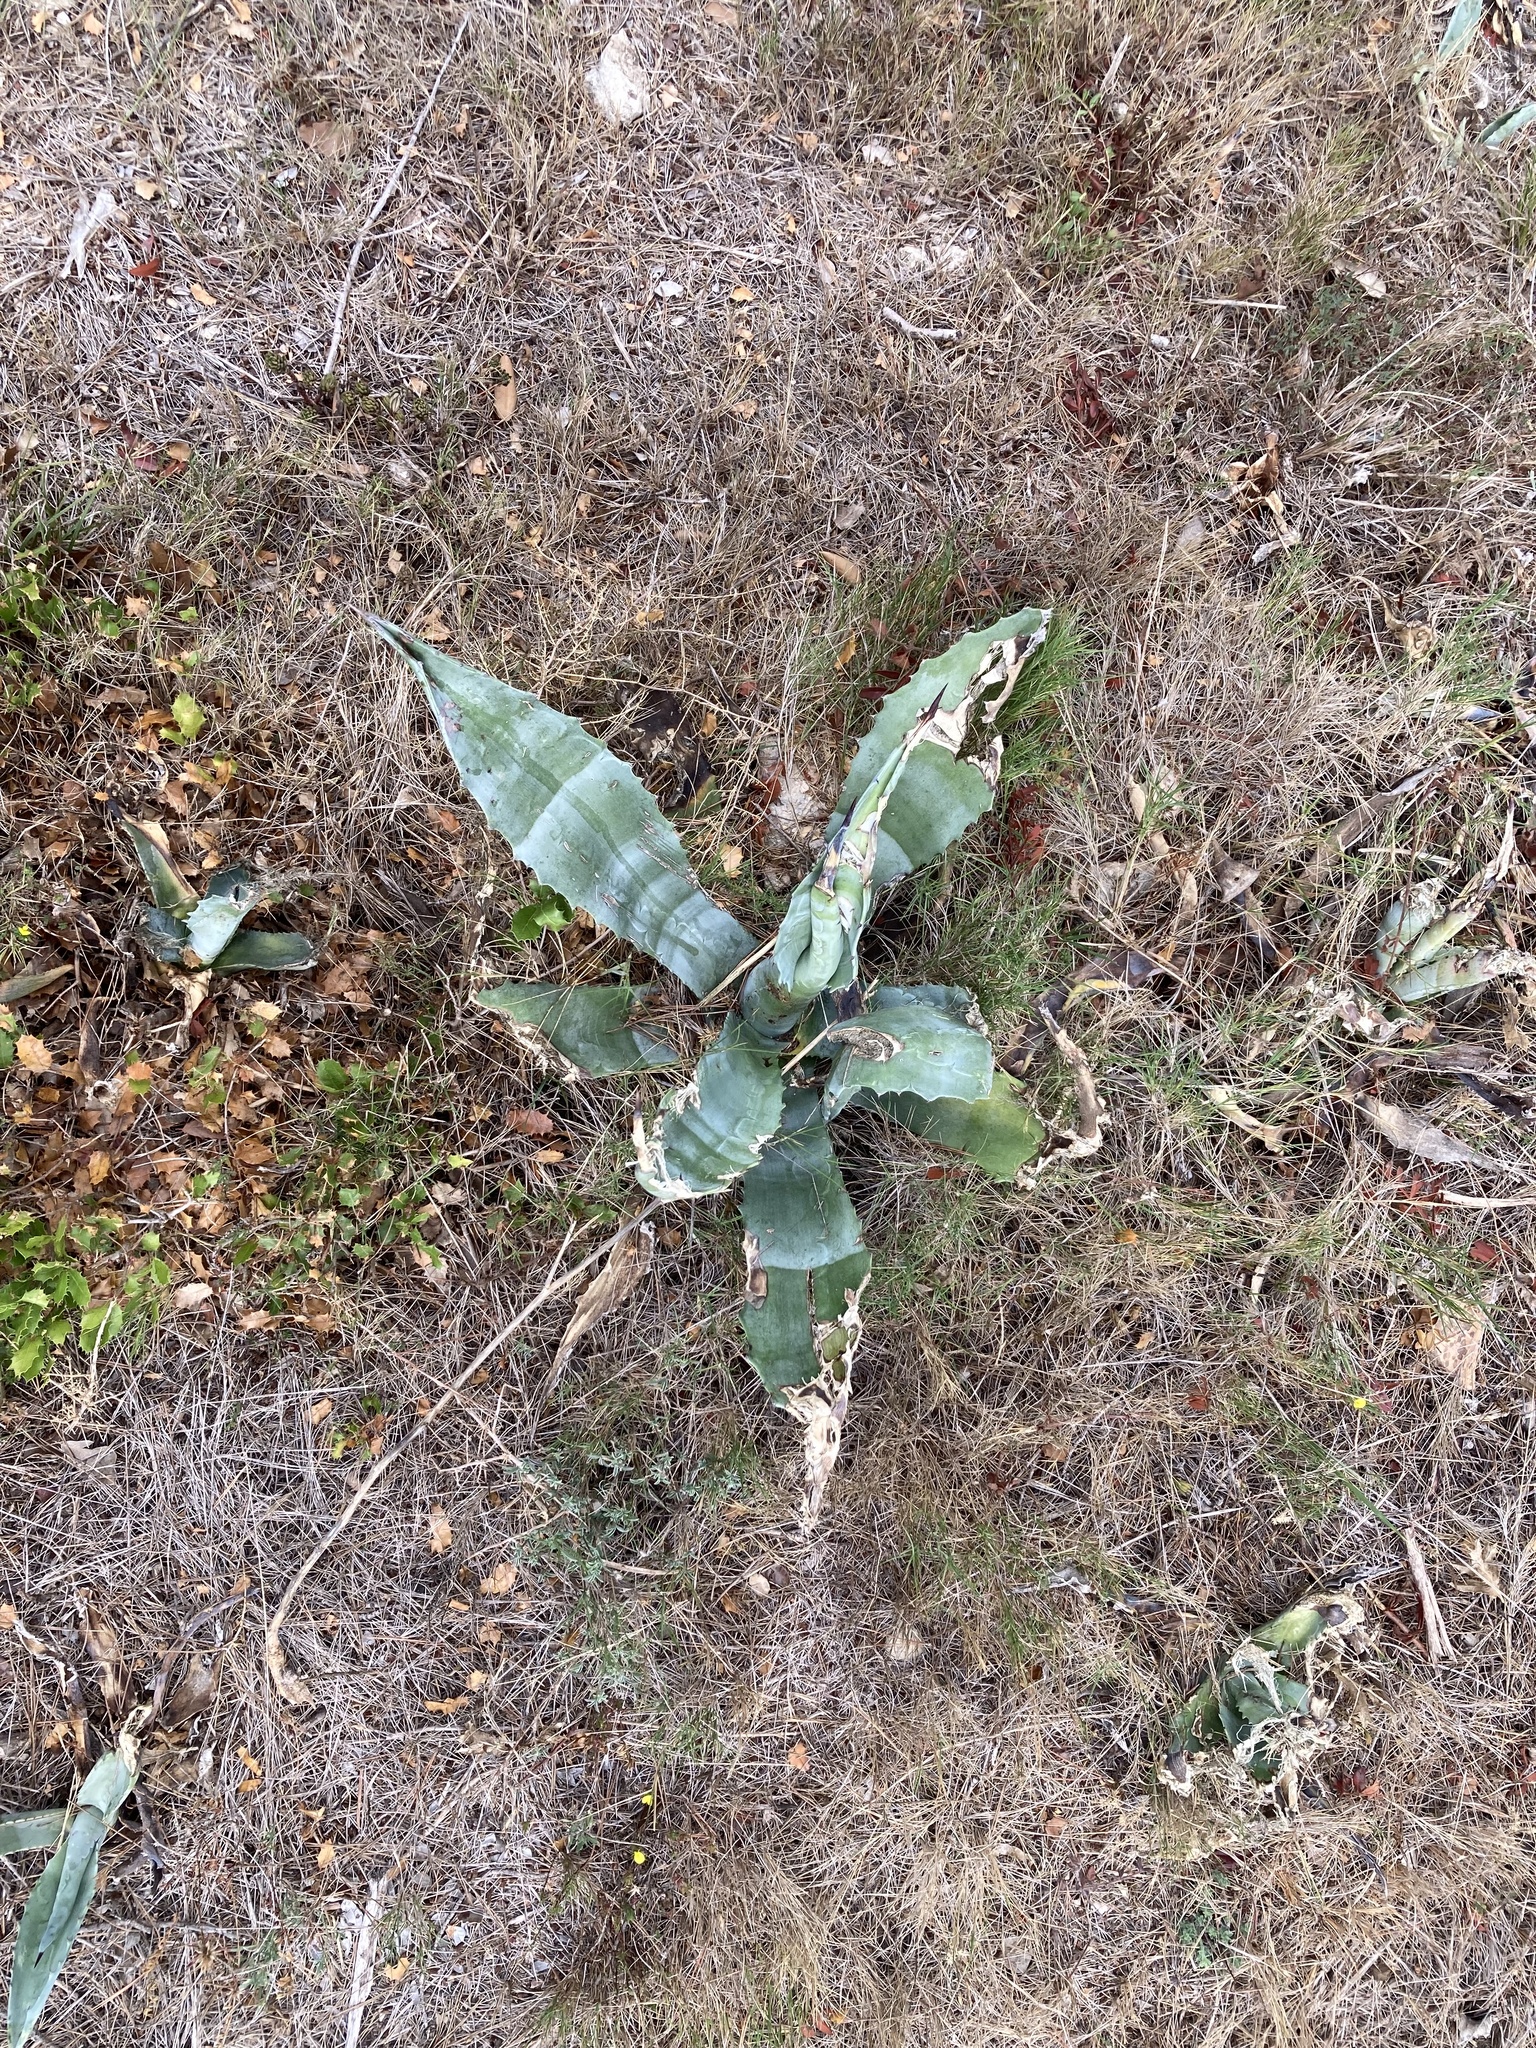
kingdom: Plantae
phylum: Tracheophyta
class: Liliopsida
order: Asparagales
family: Asparagaceae
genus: Agave
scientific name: Agave americana
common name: Centuryplant
